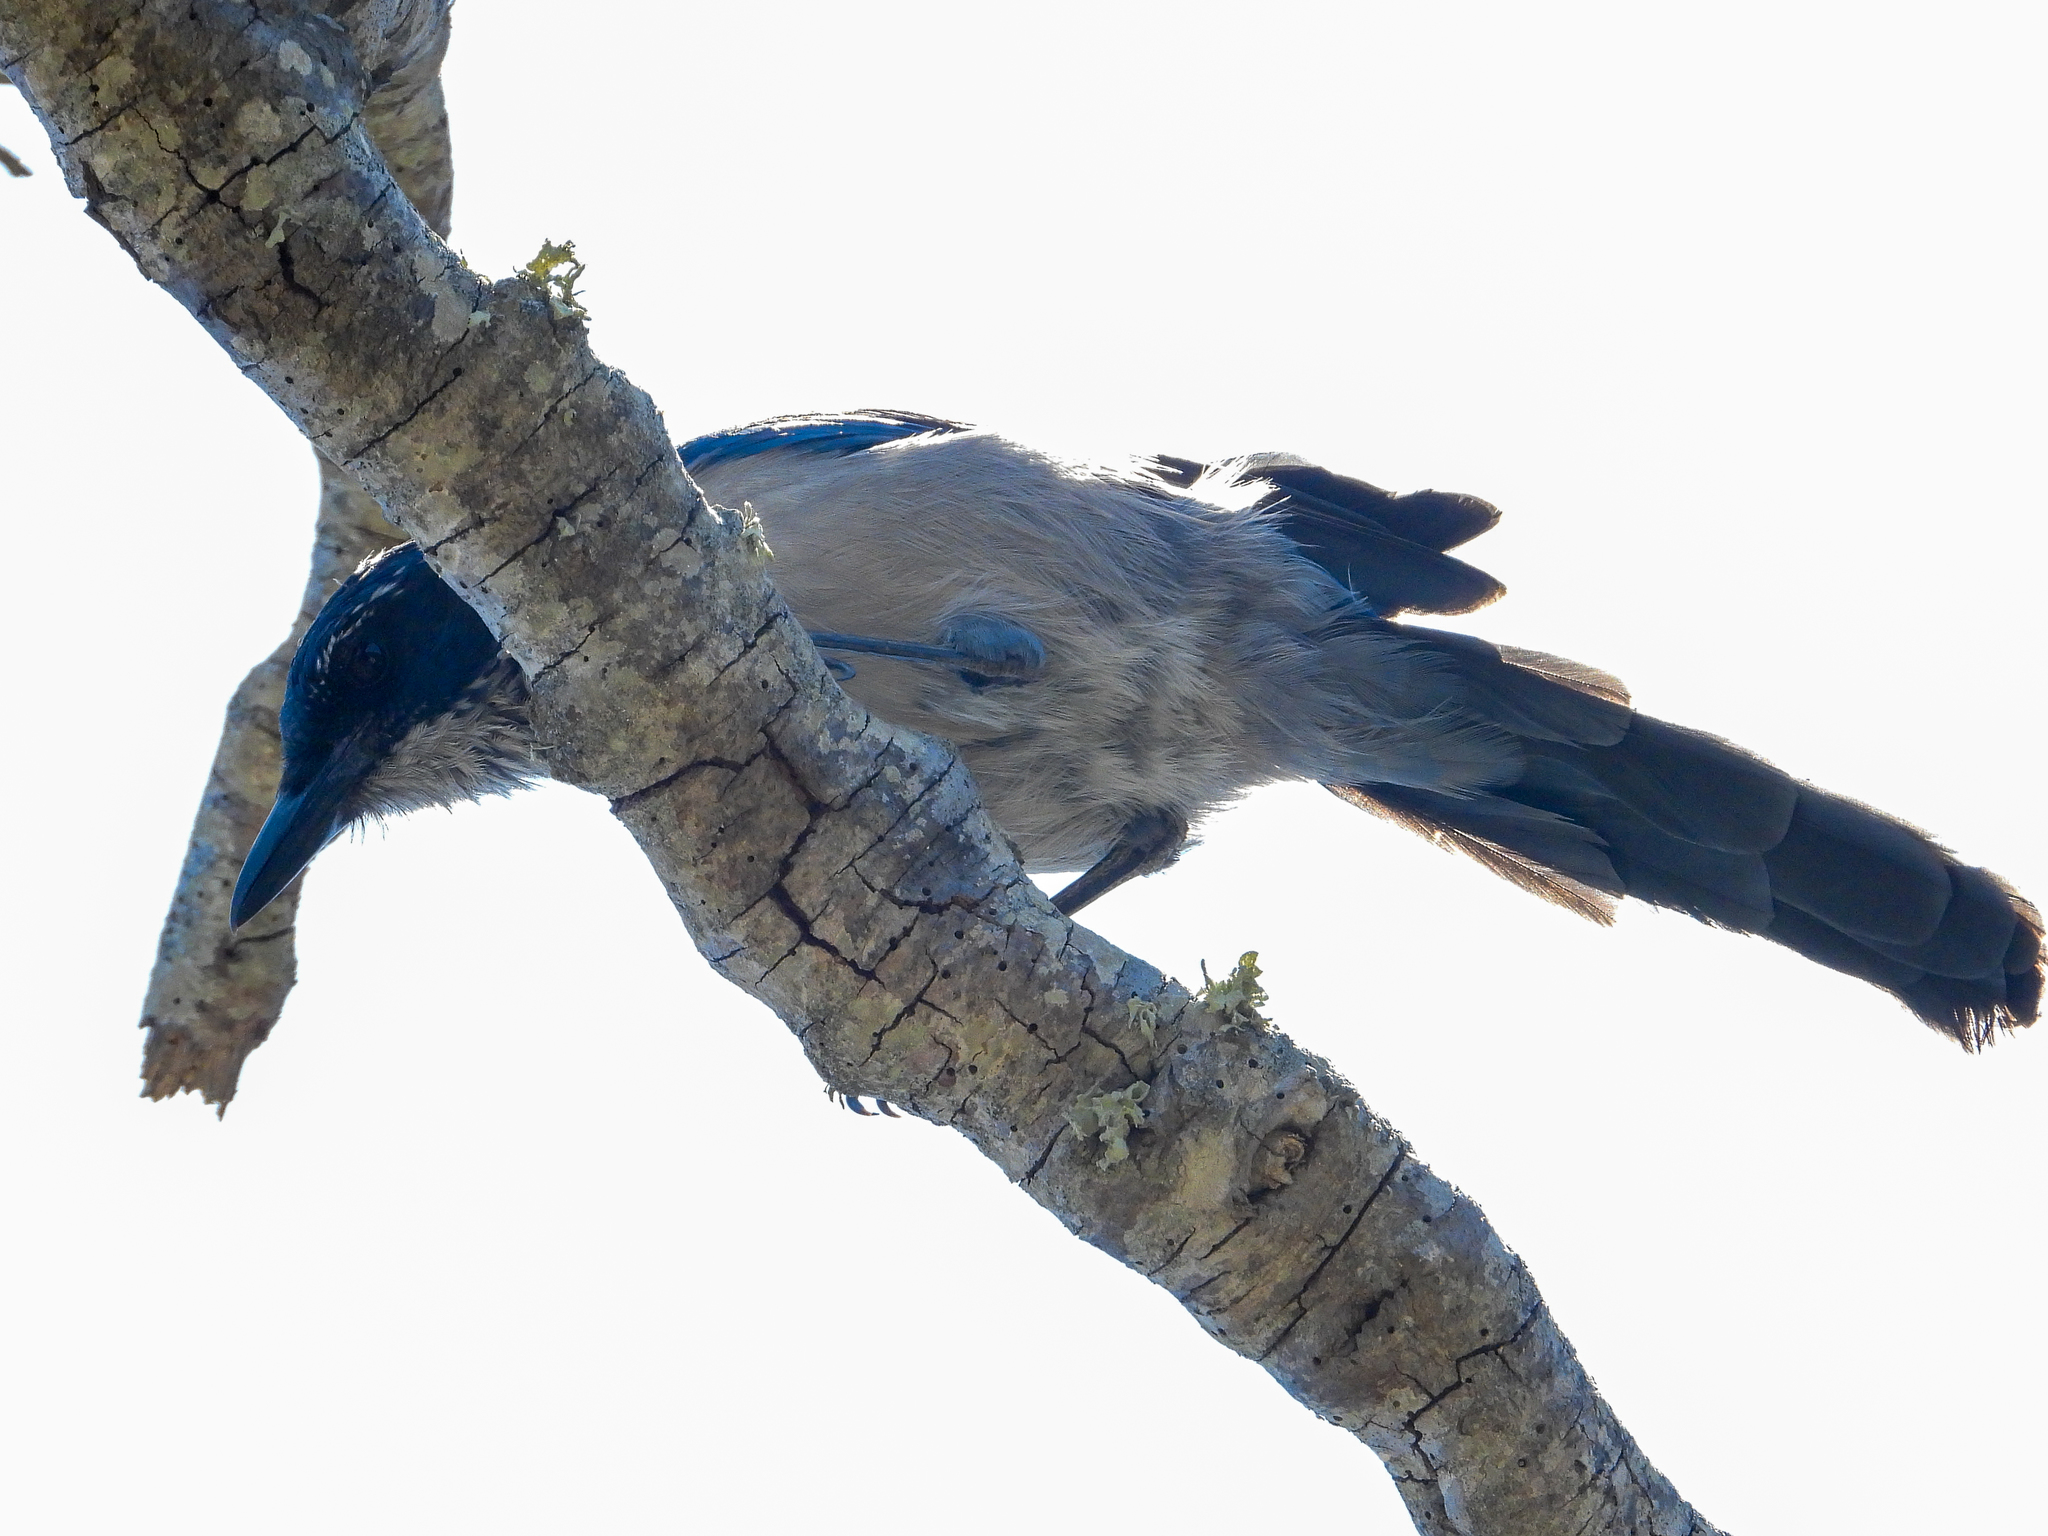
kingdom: Animalia
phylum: Chordata
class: Aves
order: Passeriformes
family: Corvidae
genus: Aphelocoma
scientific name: Aphelocoma insularis
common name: Island scrub-jay
